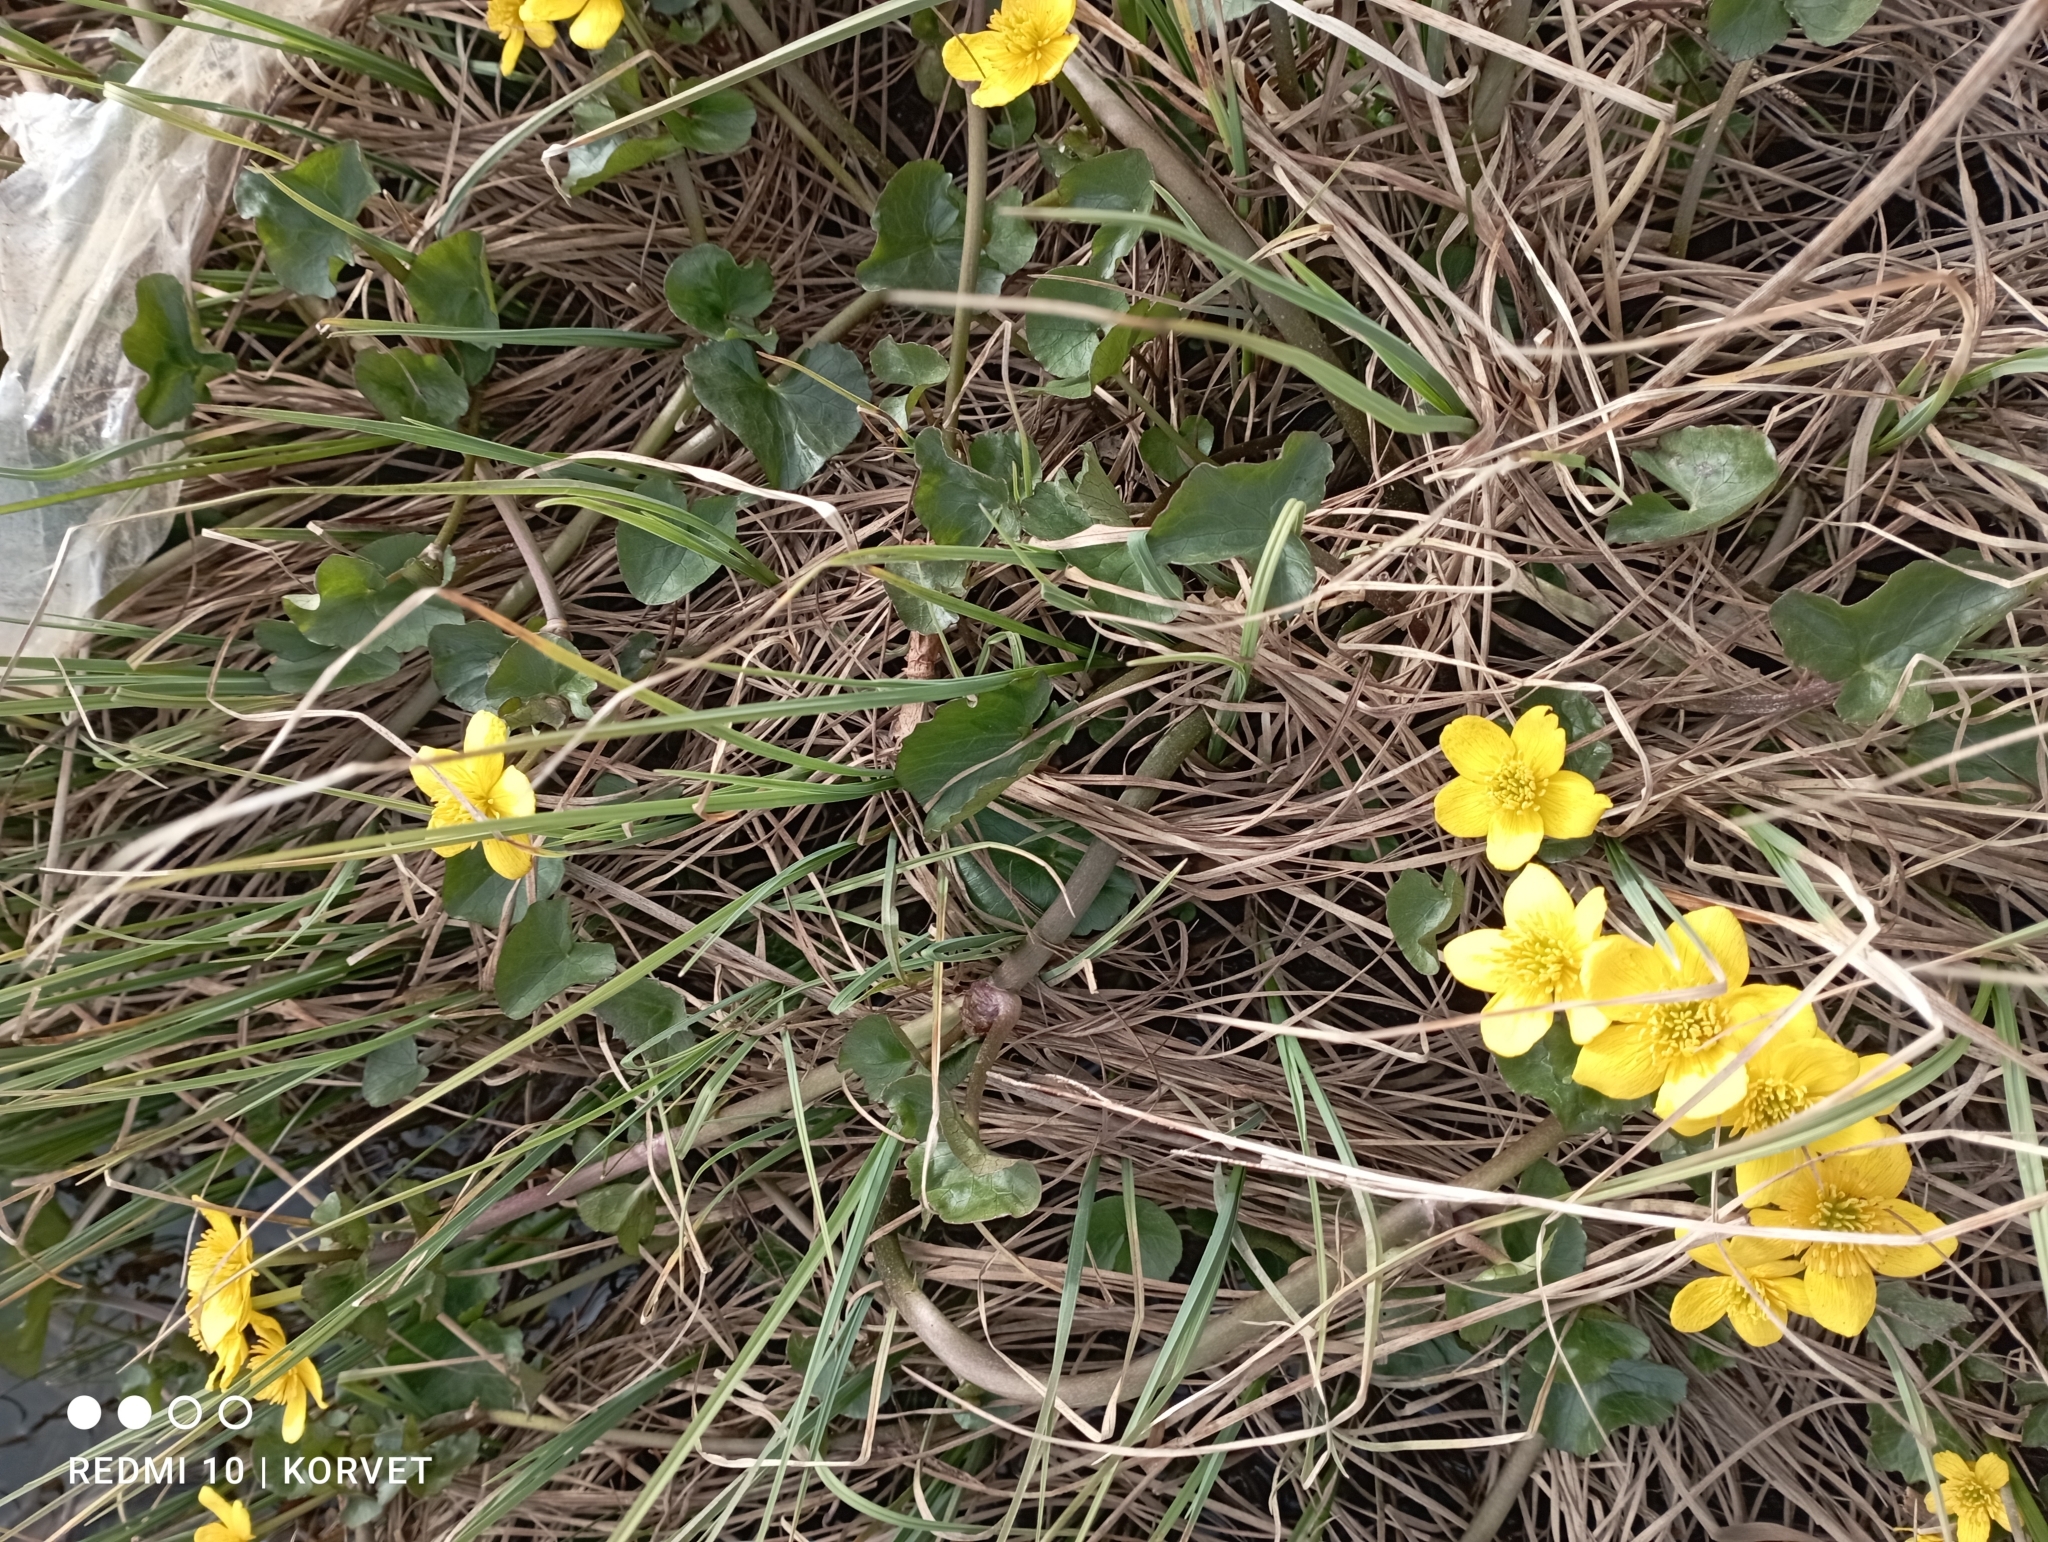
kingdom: Plantae
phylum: Tracheophyta
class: Magnoliopsida
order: Ranunculales
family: Ranunculaceae
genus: Caltha
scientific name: Caltha palustris
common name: Marsh marigold
